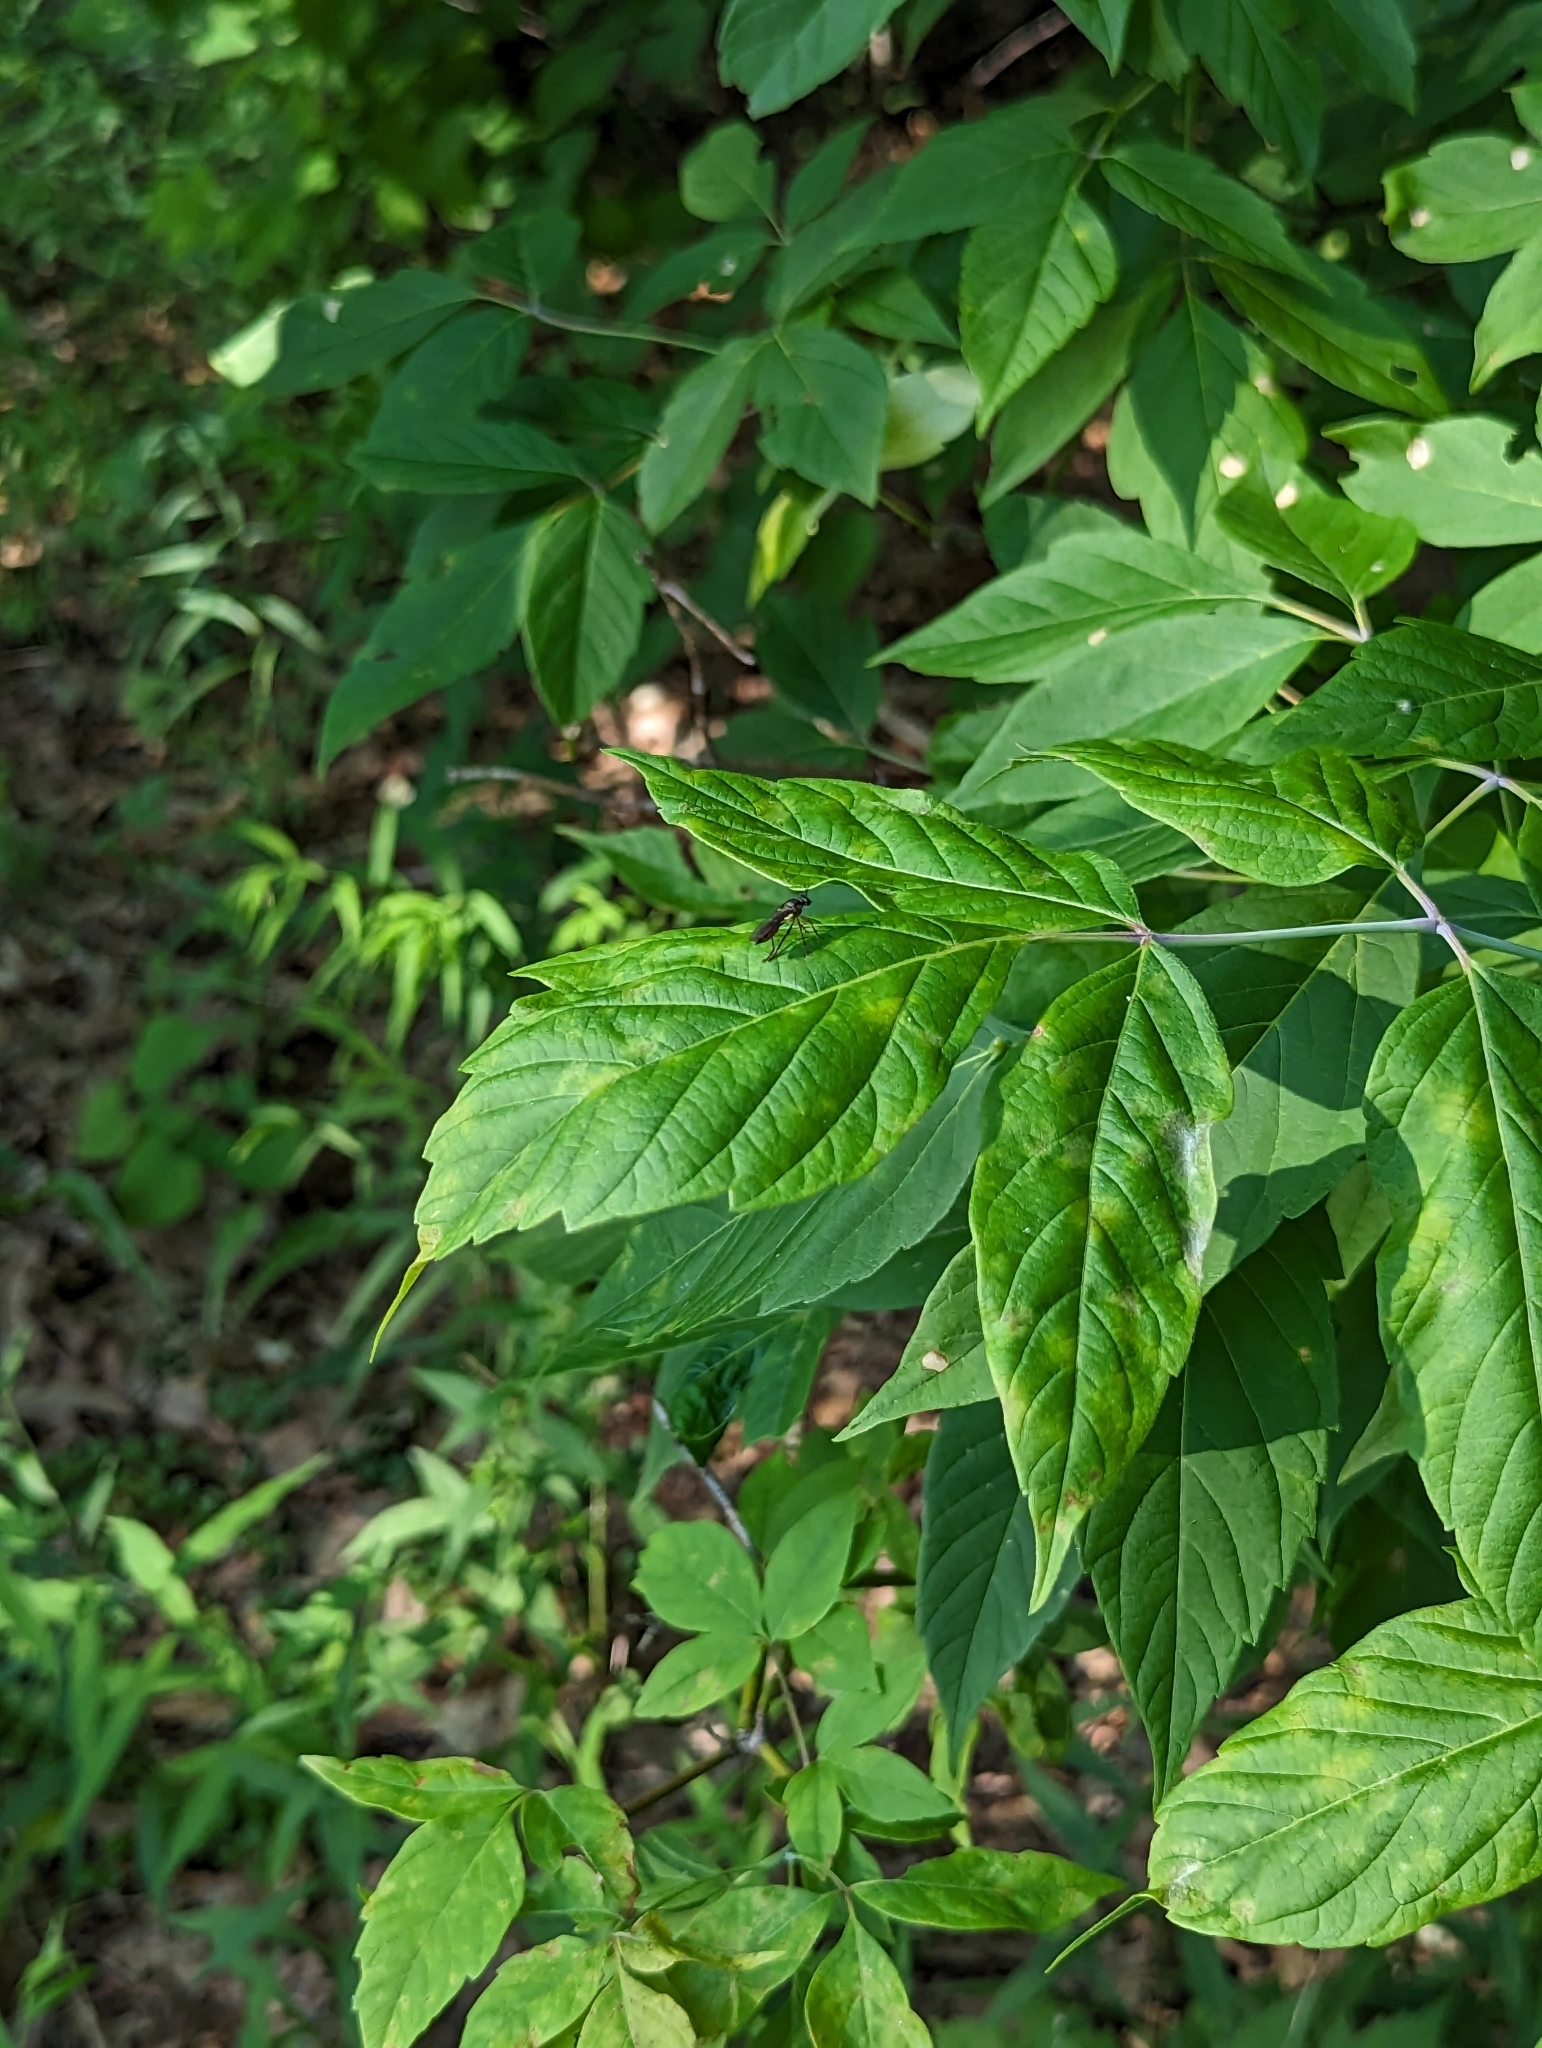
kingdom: Animalia
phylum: Arthropoda
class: Insecta
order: Diptera
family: Asilidae
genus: Dioctria
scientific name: Dioctria hyalipennis
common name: Stripe-legged robberfly
